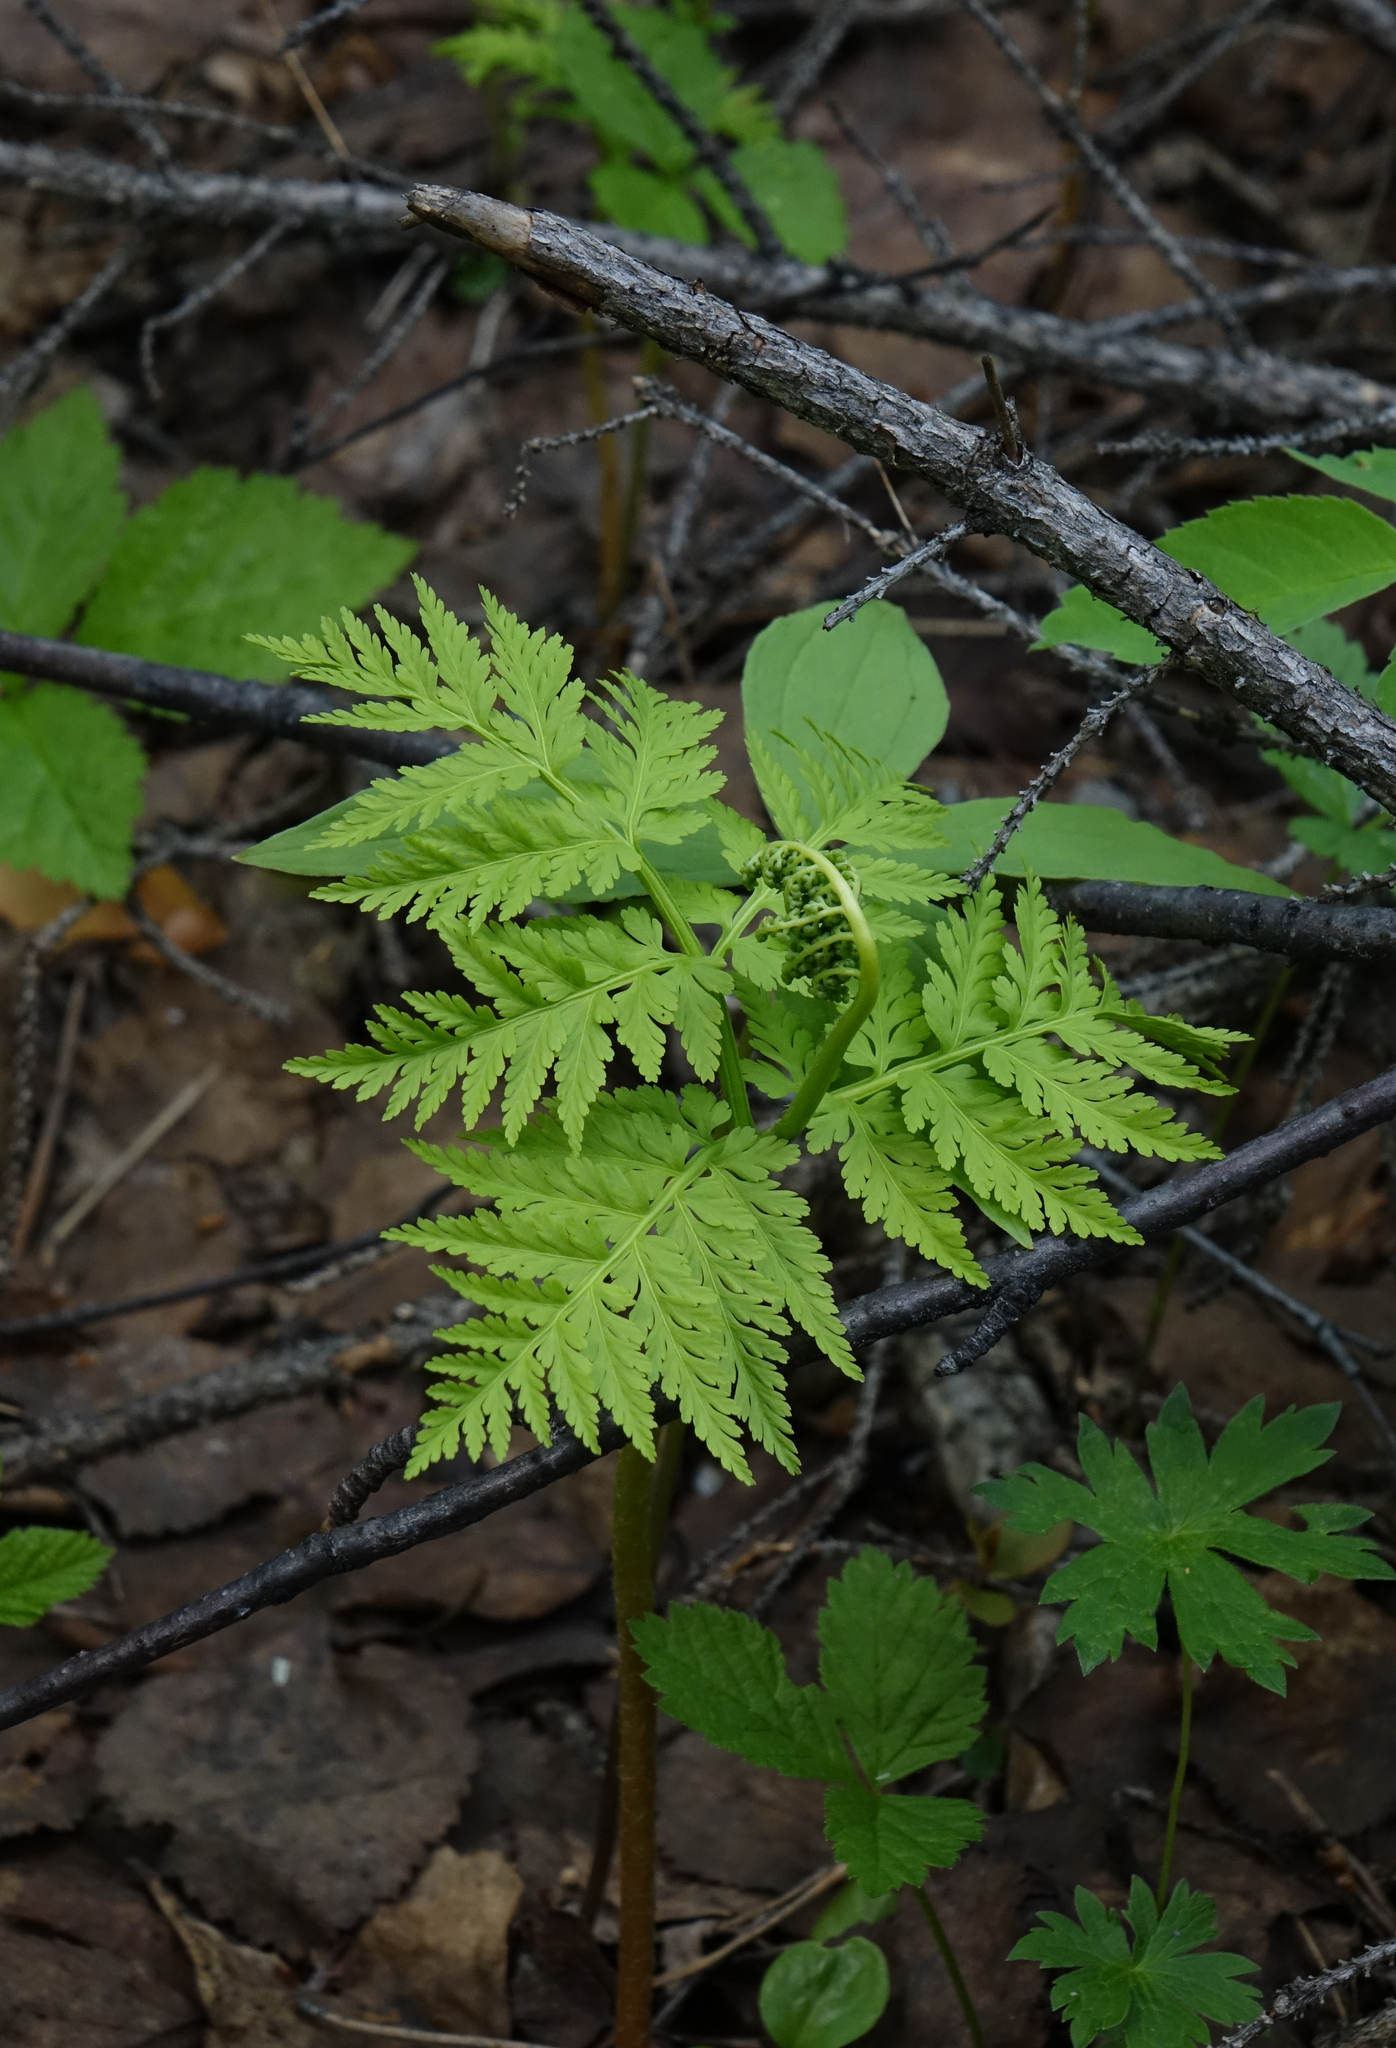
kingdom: Plantae
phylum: Tracheophyta
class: Polypodiopsida
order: Ophioglossales
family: Ophioglossaceae
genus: Botrypus
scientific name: Botrypus virginianus
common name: Common grapefern
